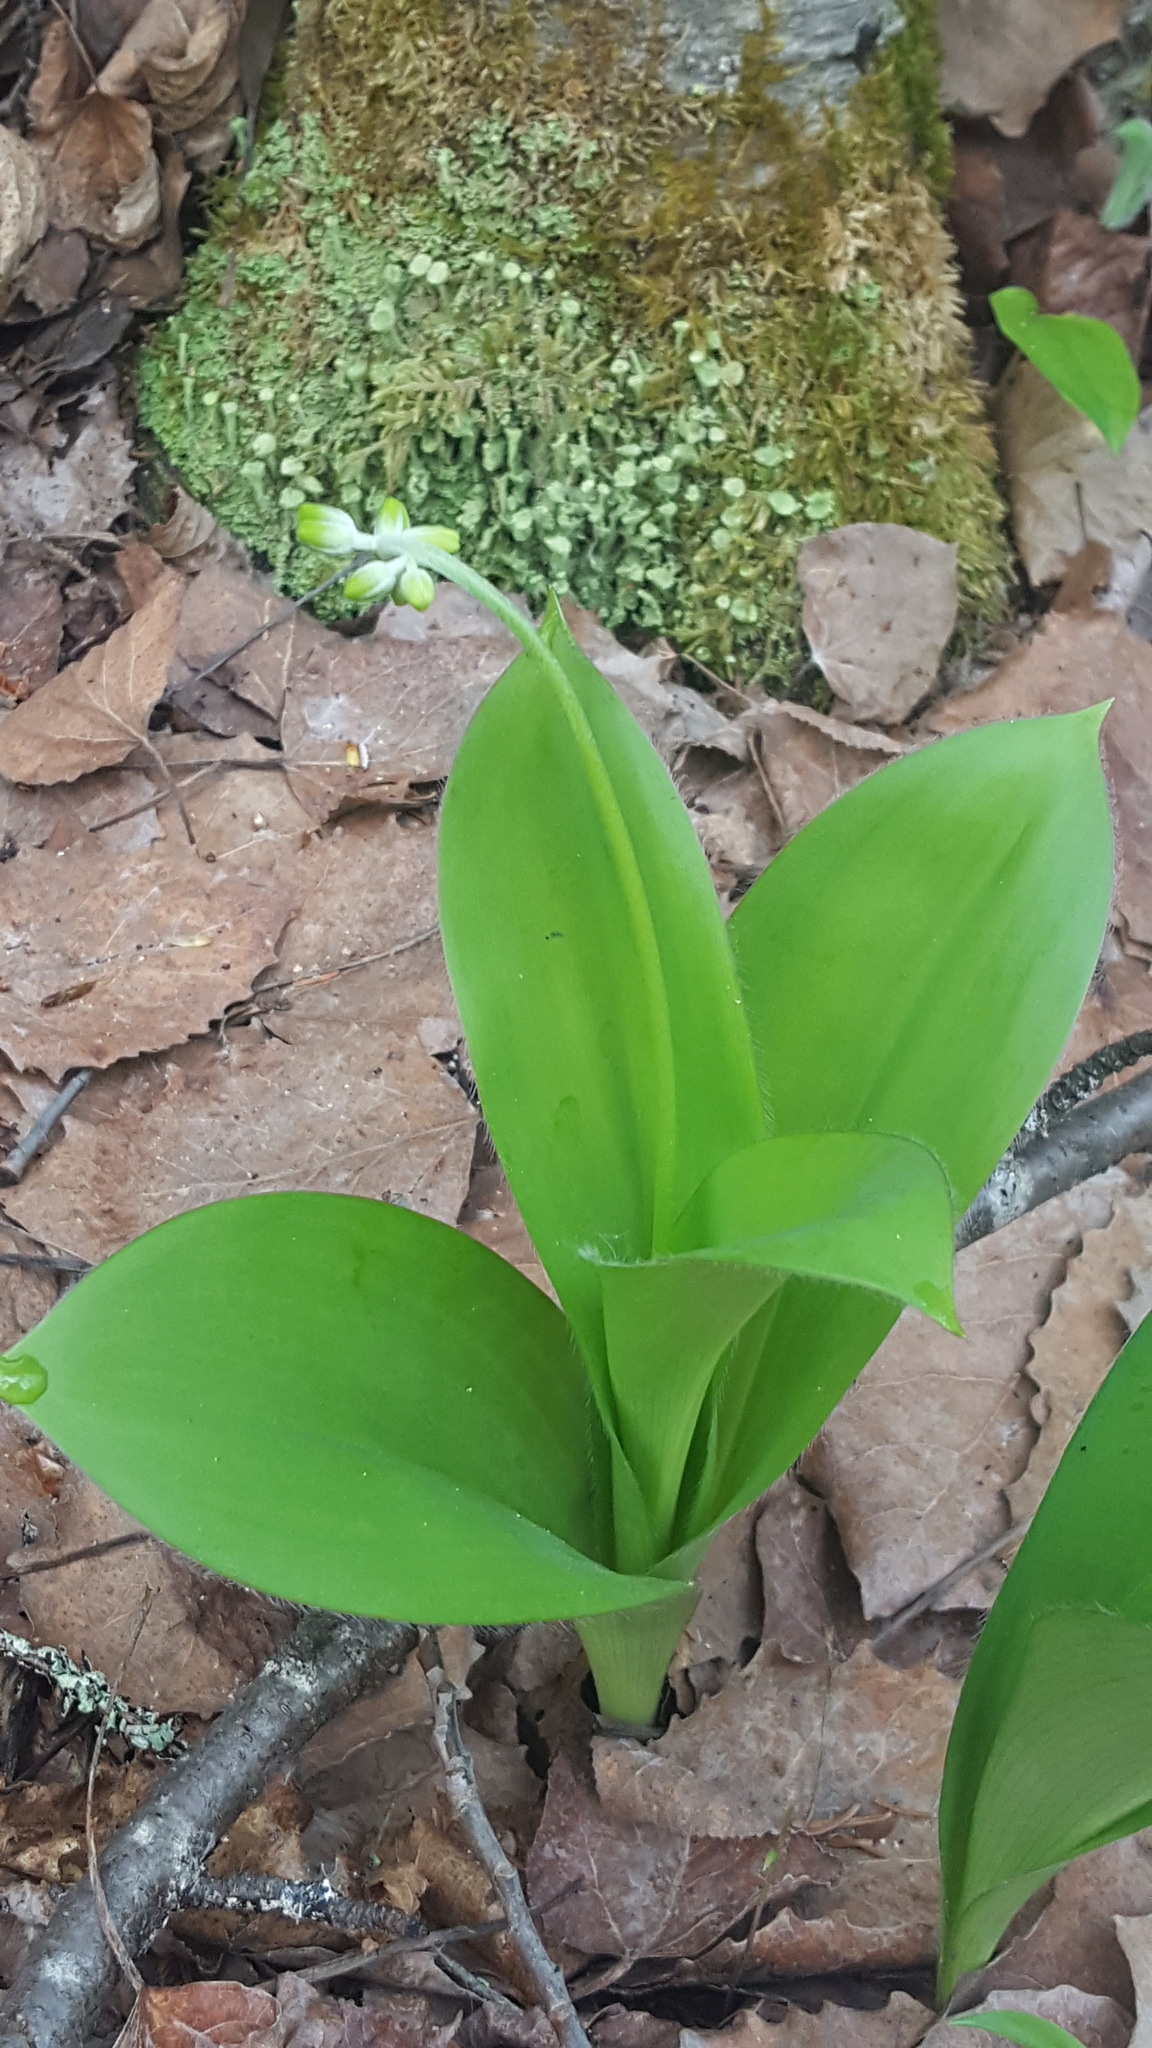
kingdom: Plantae
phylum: Tracheophyta
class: Liliopsida
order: Liliales
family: Liliaceae
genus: Clintonia
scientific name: Clintonia borealis
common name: Yellow clintonia
